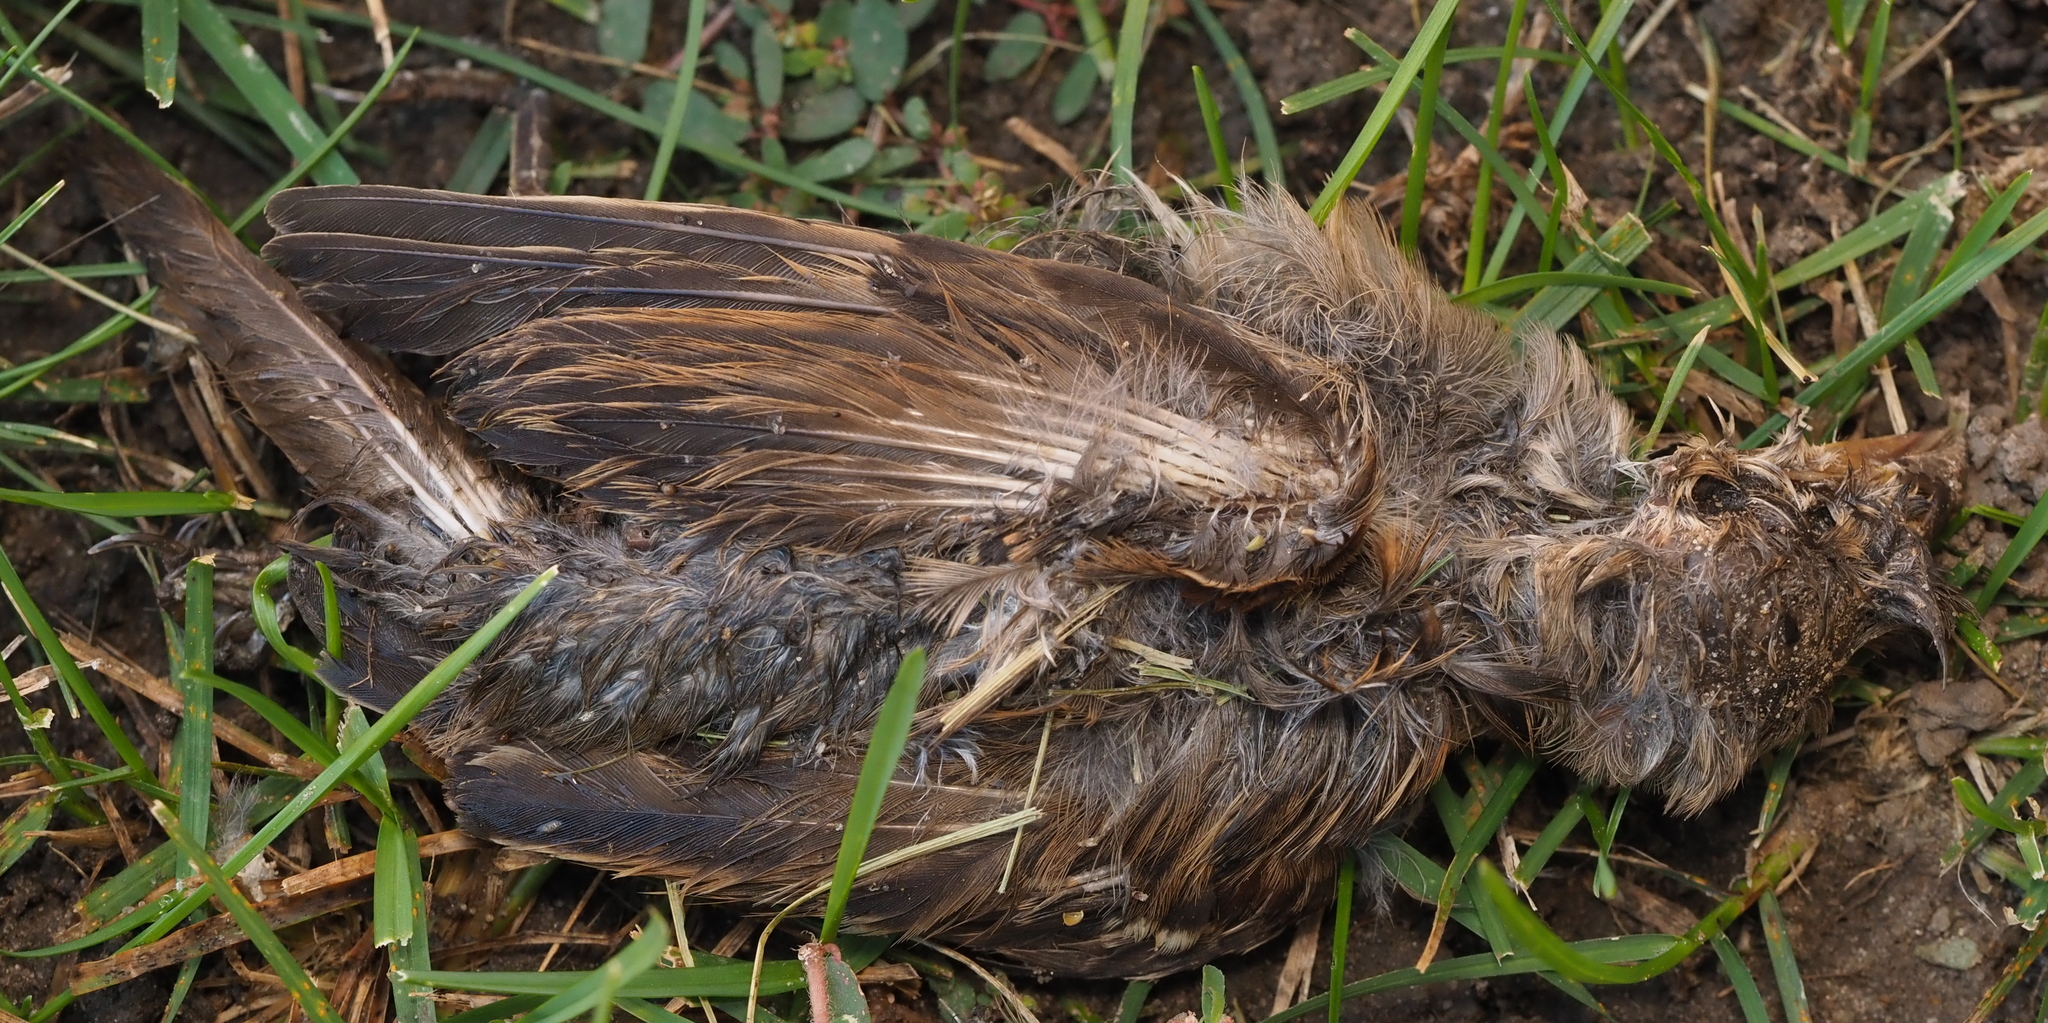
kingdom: Animalia
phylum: Chordata
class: Aves
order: Passeriformes
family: Passeridae
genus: Passer
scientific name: Passer domesticus
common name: House sparrow
